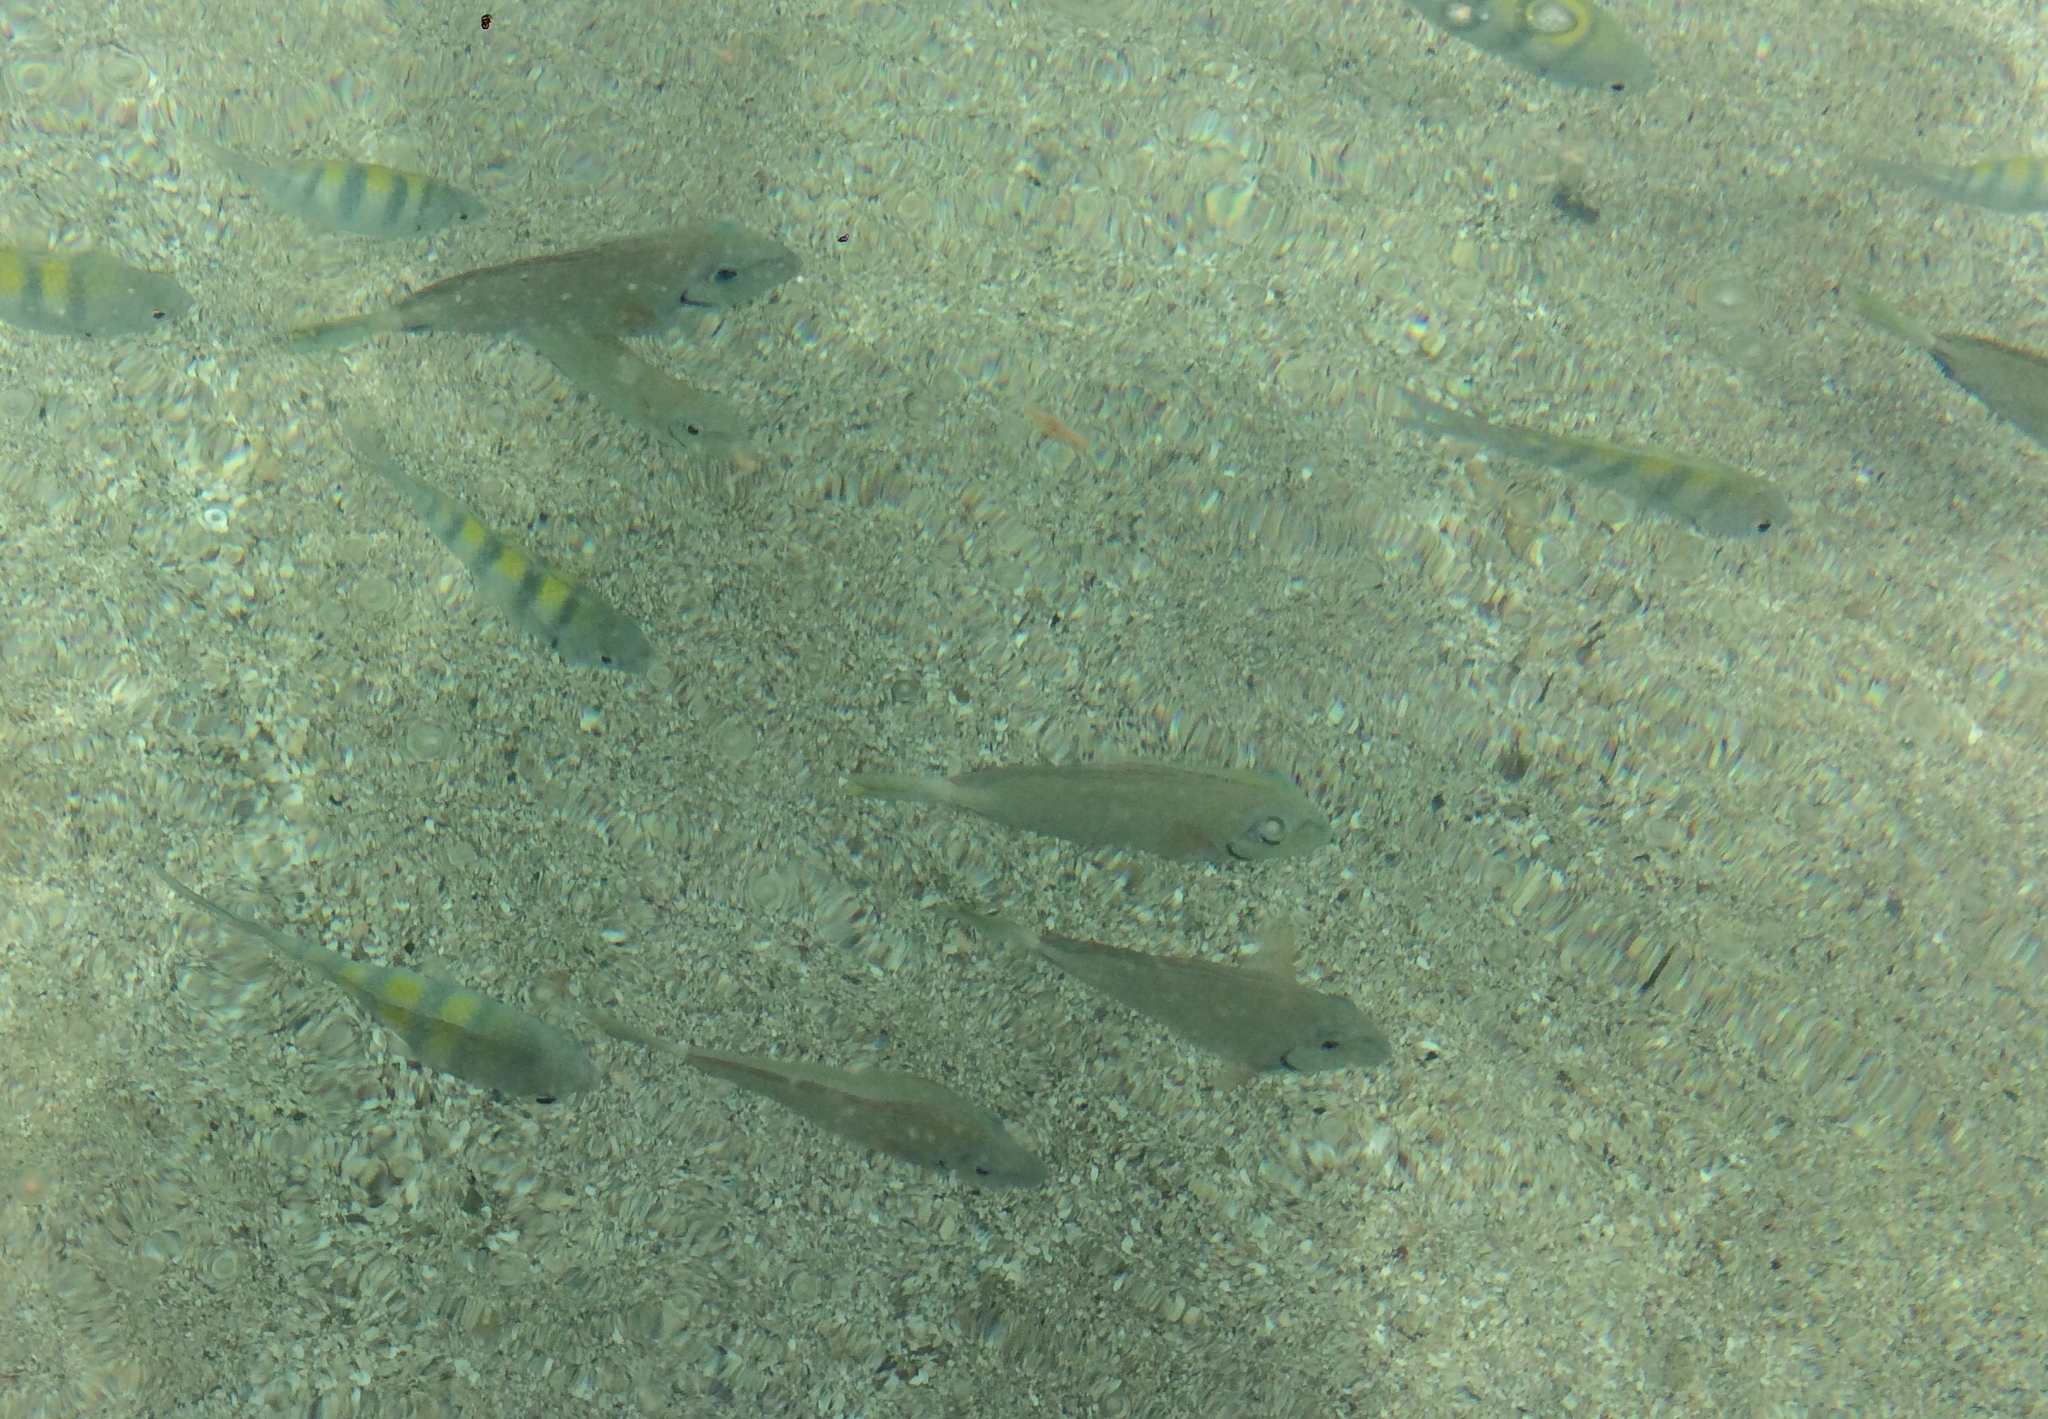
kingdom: Animalia
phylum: Chordata
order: Perciformes
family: Acanthuridae
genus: Acanthurus
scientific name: Acanthurus bahianus
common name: Ocean surgeon
